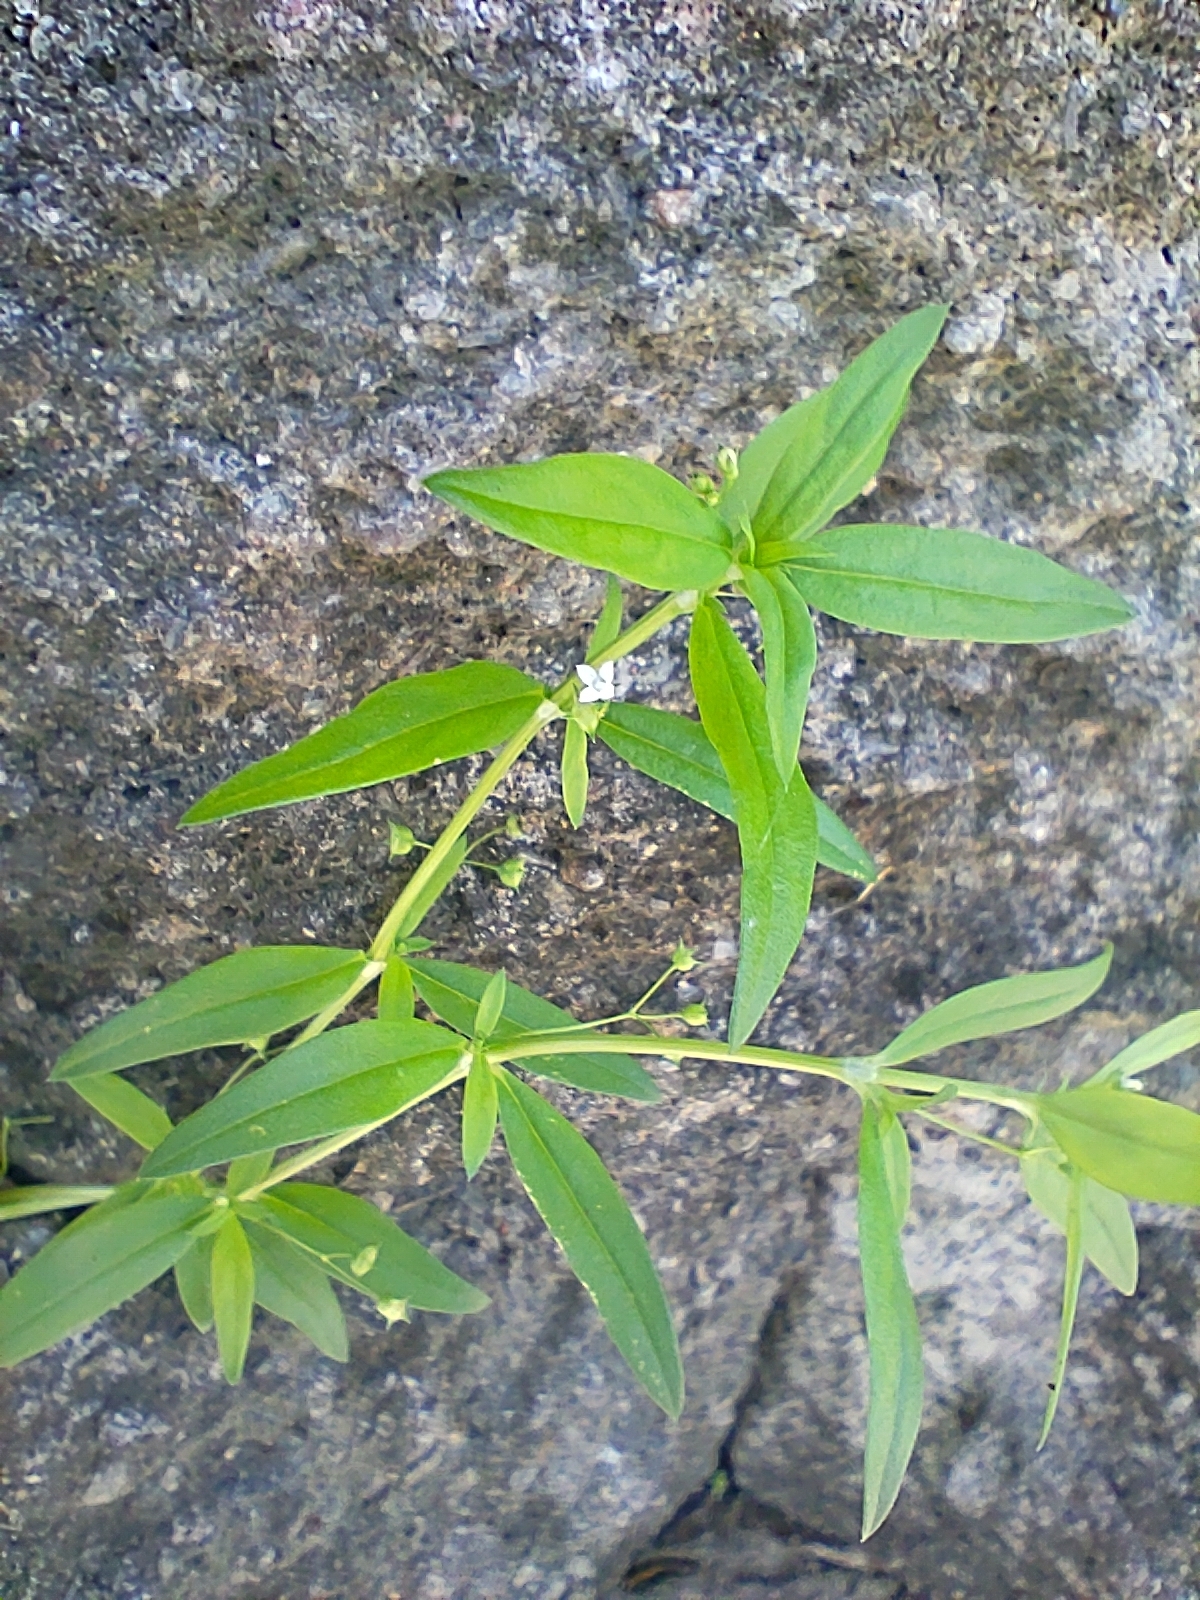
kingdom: Plantae
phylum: Tracheophyta
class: Magnoliopsida
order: Gentianales
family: Rubiaceae
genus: Oldenlandia
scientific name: Oldenlandia corymbosa
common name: Flat-top mille graines
